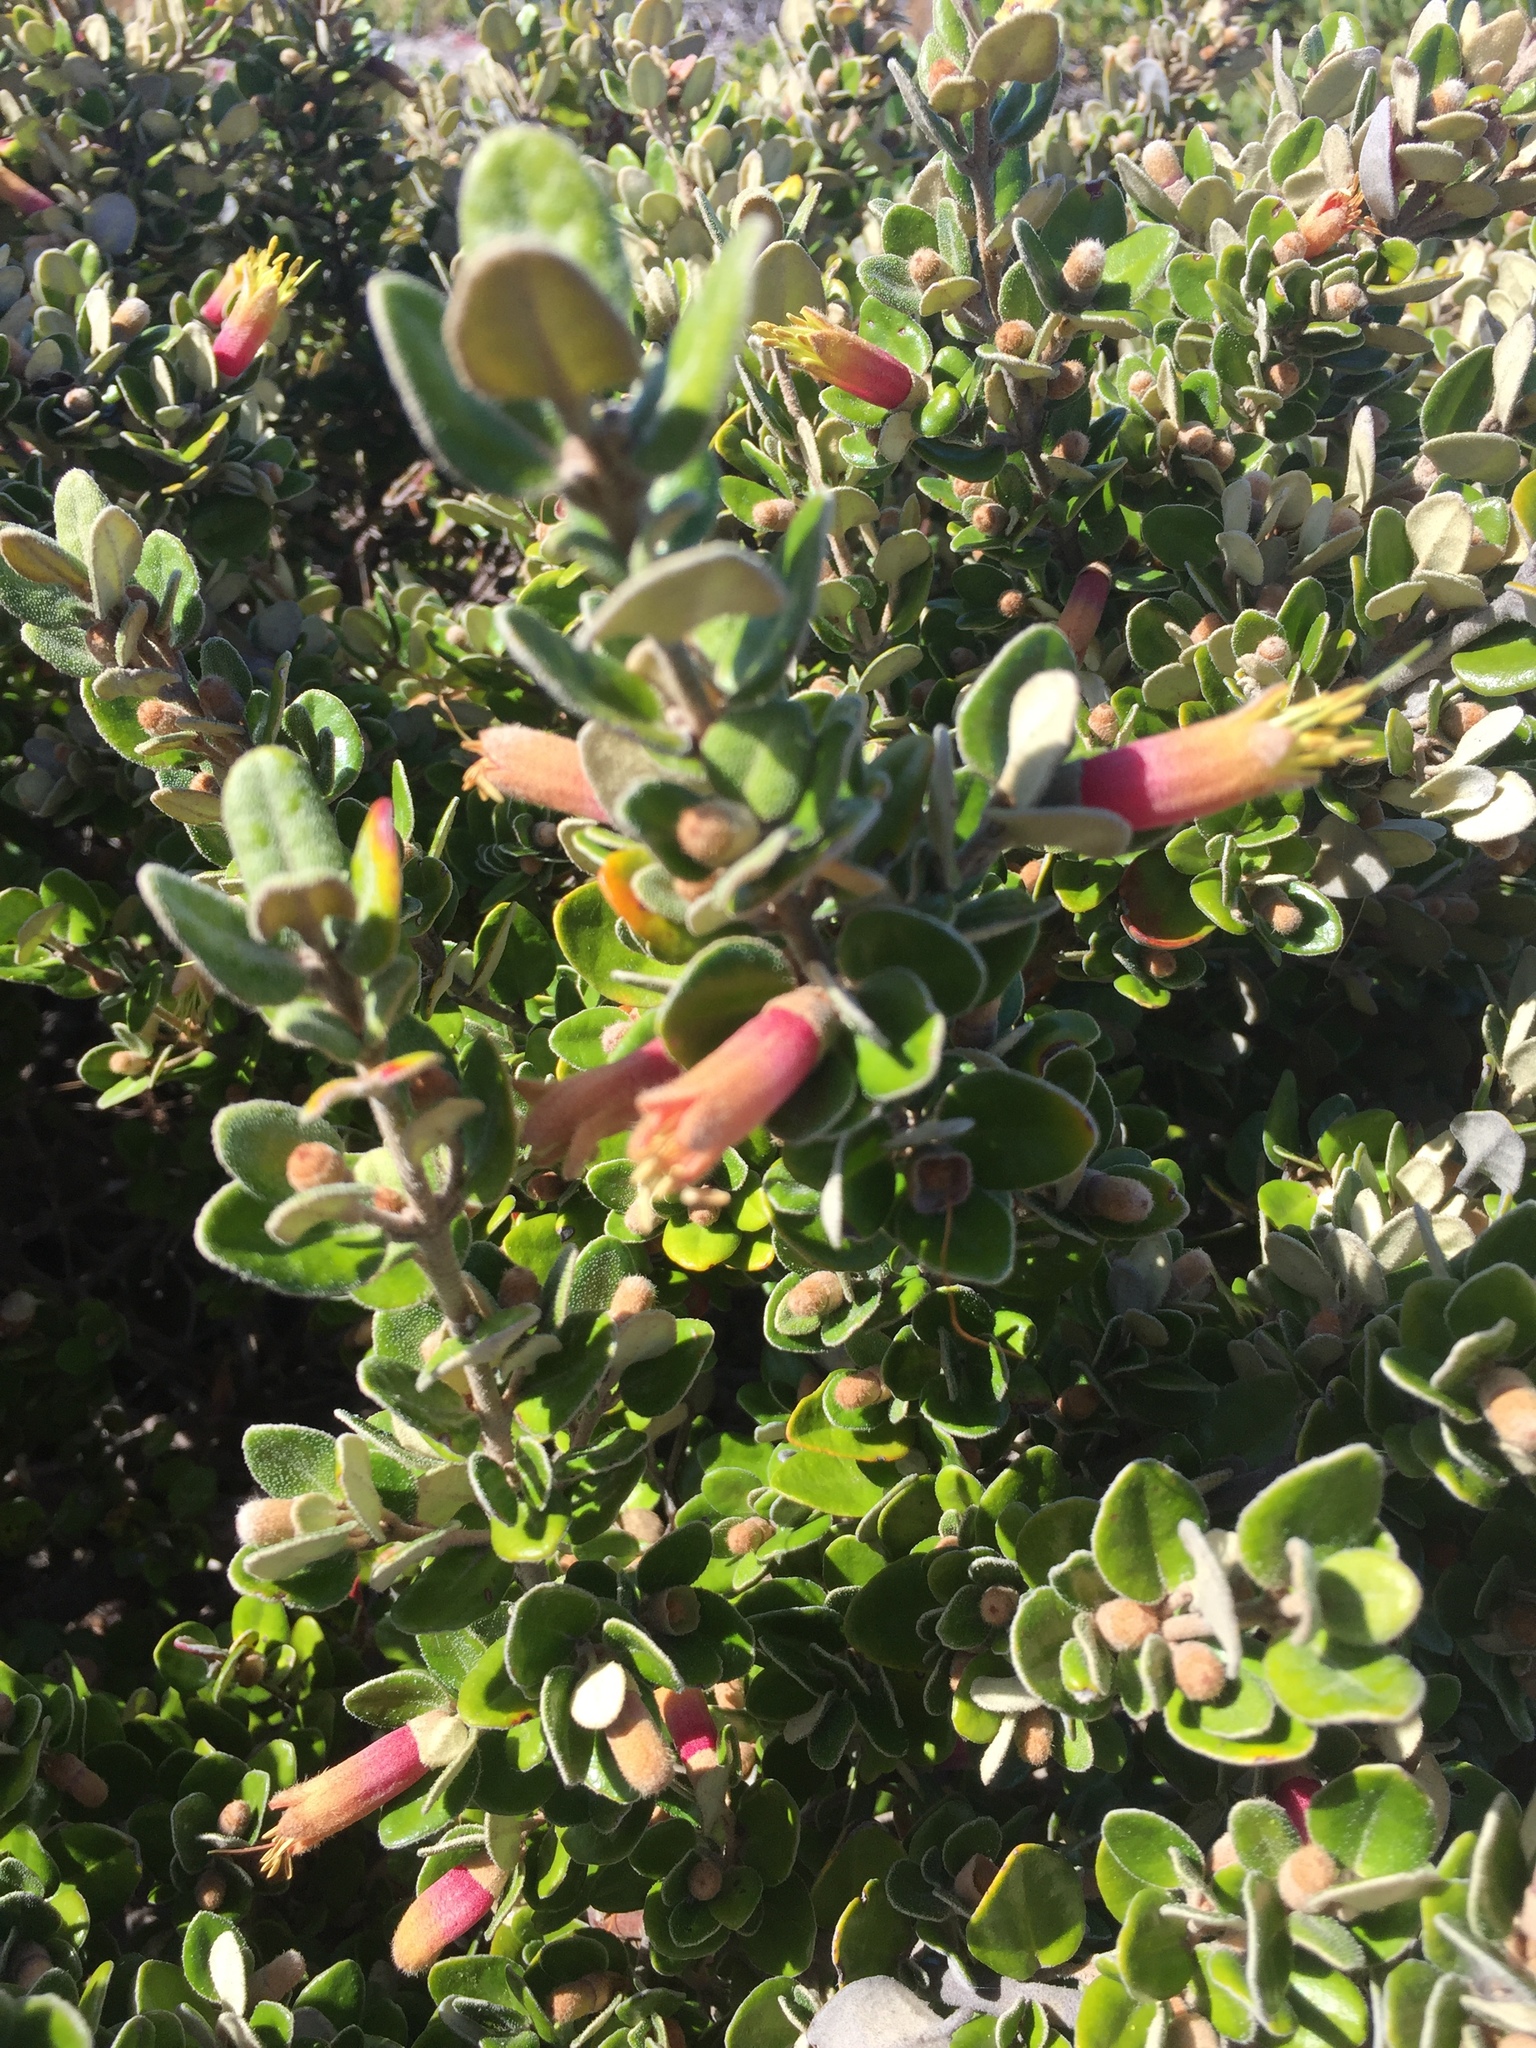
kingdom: Plantae
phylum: Tracheophyta
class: Magnoliopsida
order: Sapindales
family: Rutaceae
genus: Correa
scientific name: Correa backhouseana
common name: Tasmanian-fuchsia
